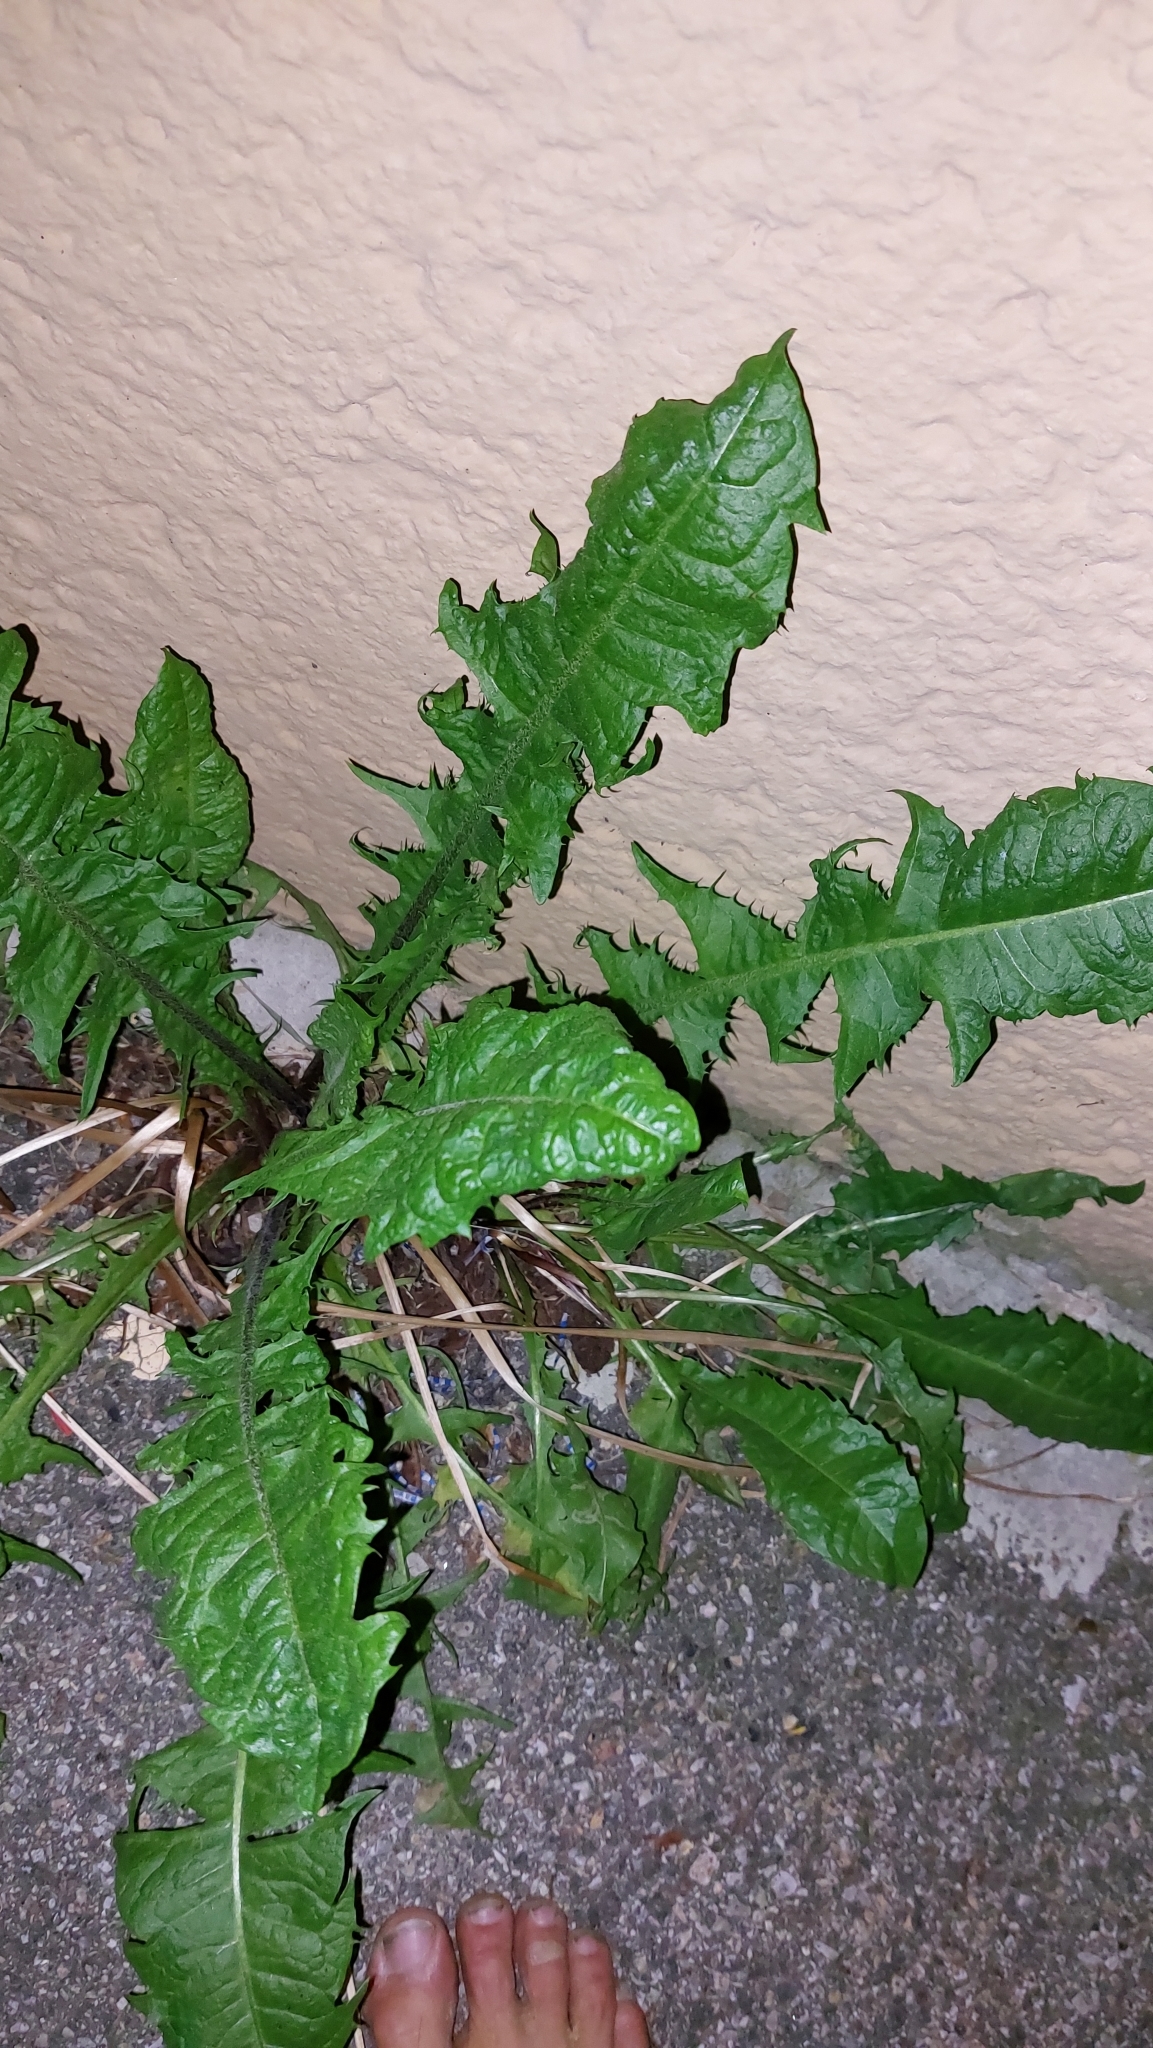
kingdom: Plantae
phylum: Tracheophyta
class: Magnoliopsida
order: Asterales
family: Asteraceae
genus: Taraxacum
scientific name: Taraxacum
